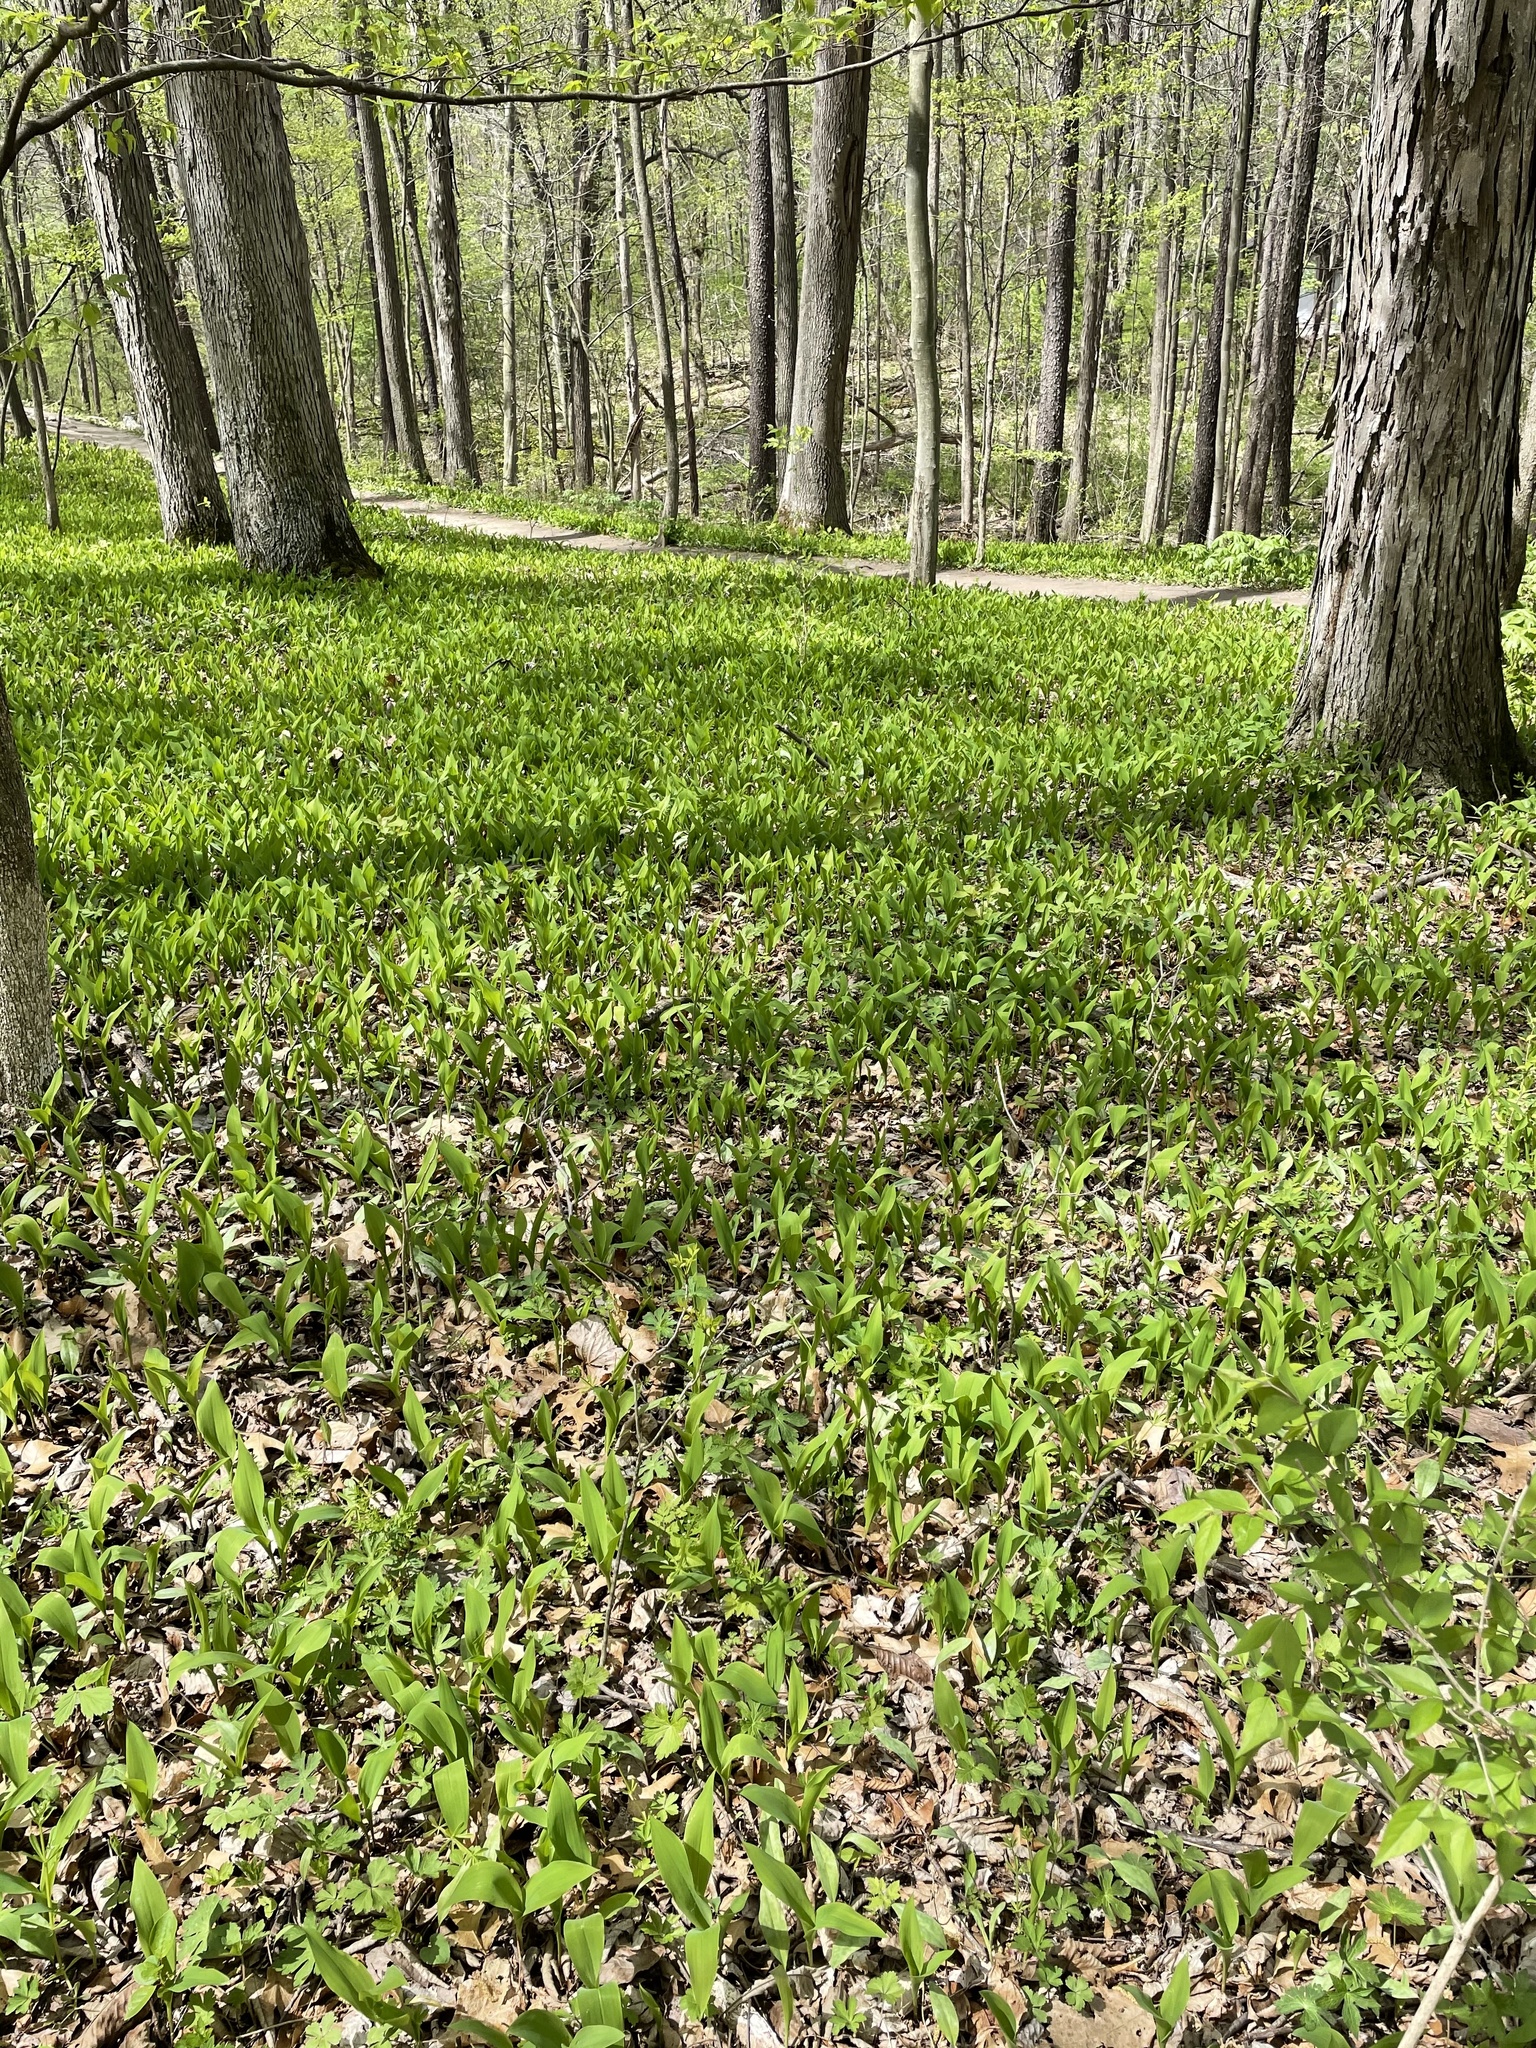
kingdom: Plantae
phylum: Tracheophyta
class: Liliopsida
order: Asparagales
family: Asparagaceae
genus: Convallaria
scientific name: Convallaria majalis
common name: Lily-of-the-valley
